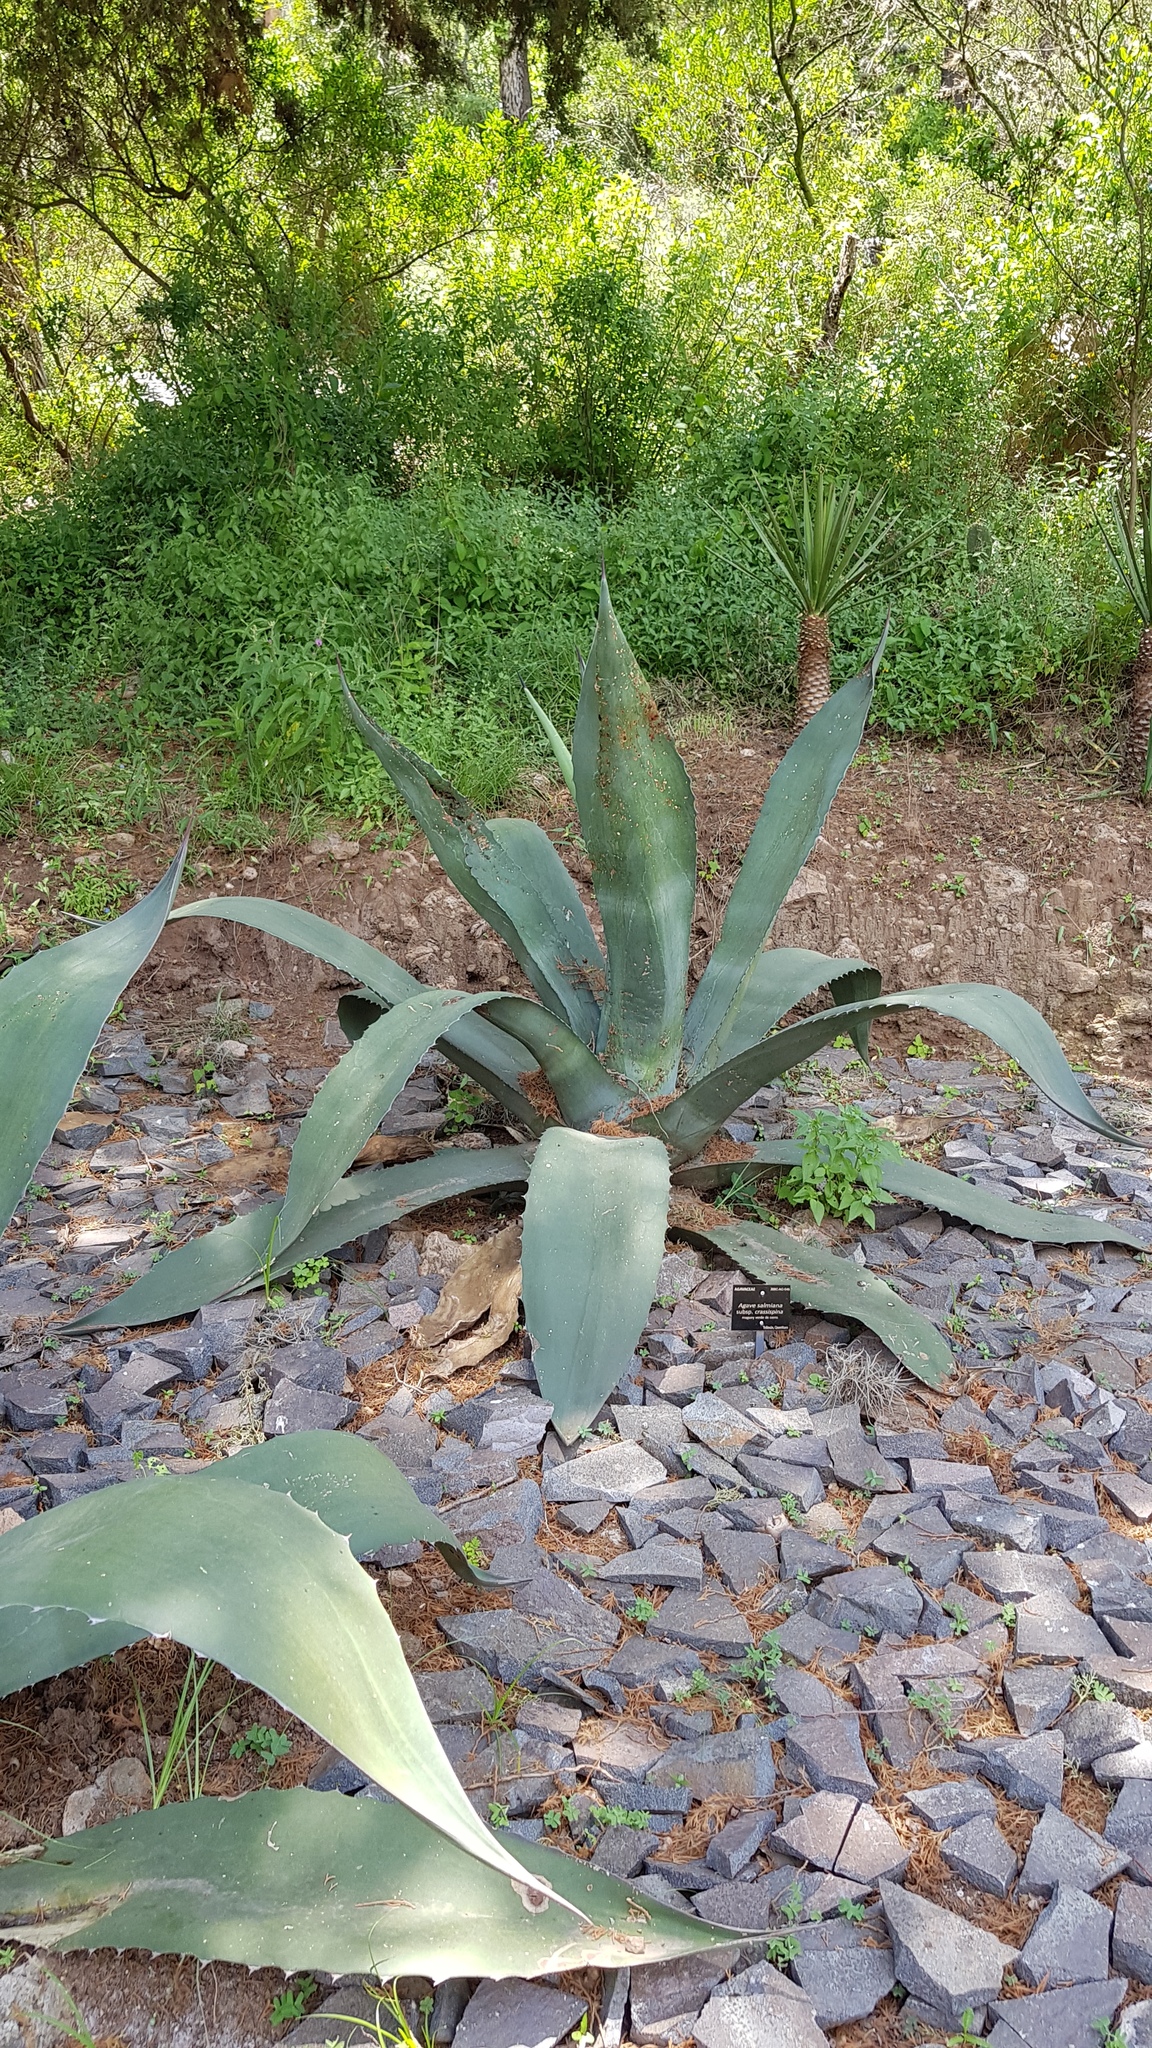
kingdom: Plantae
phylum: Tracheophyta
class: Liliopsida
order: Asparagales
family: Asparagaceae
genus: Agave
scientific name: Agave salmiana
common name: Pulque agave
